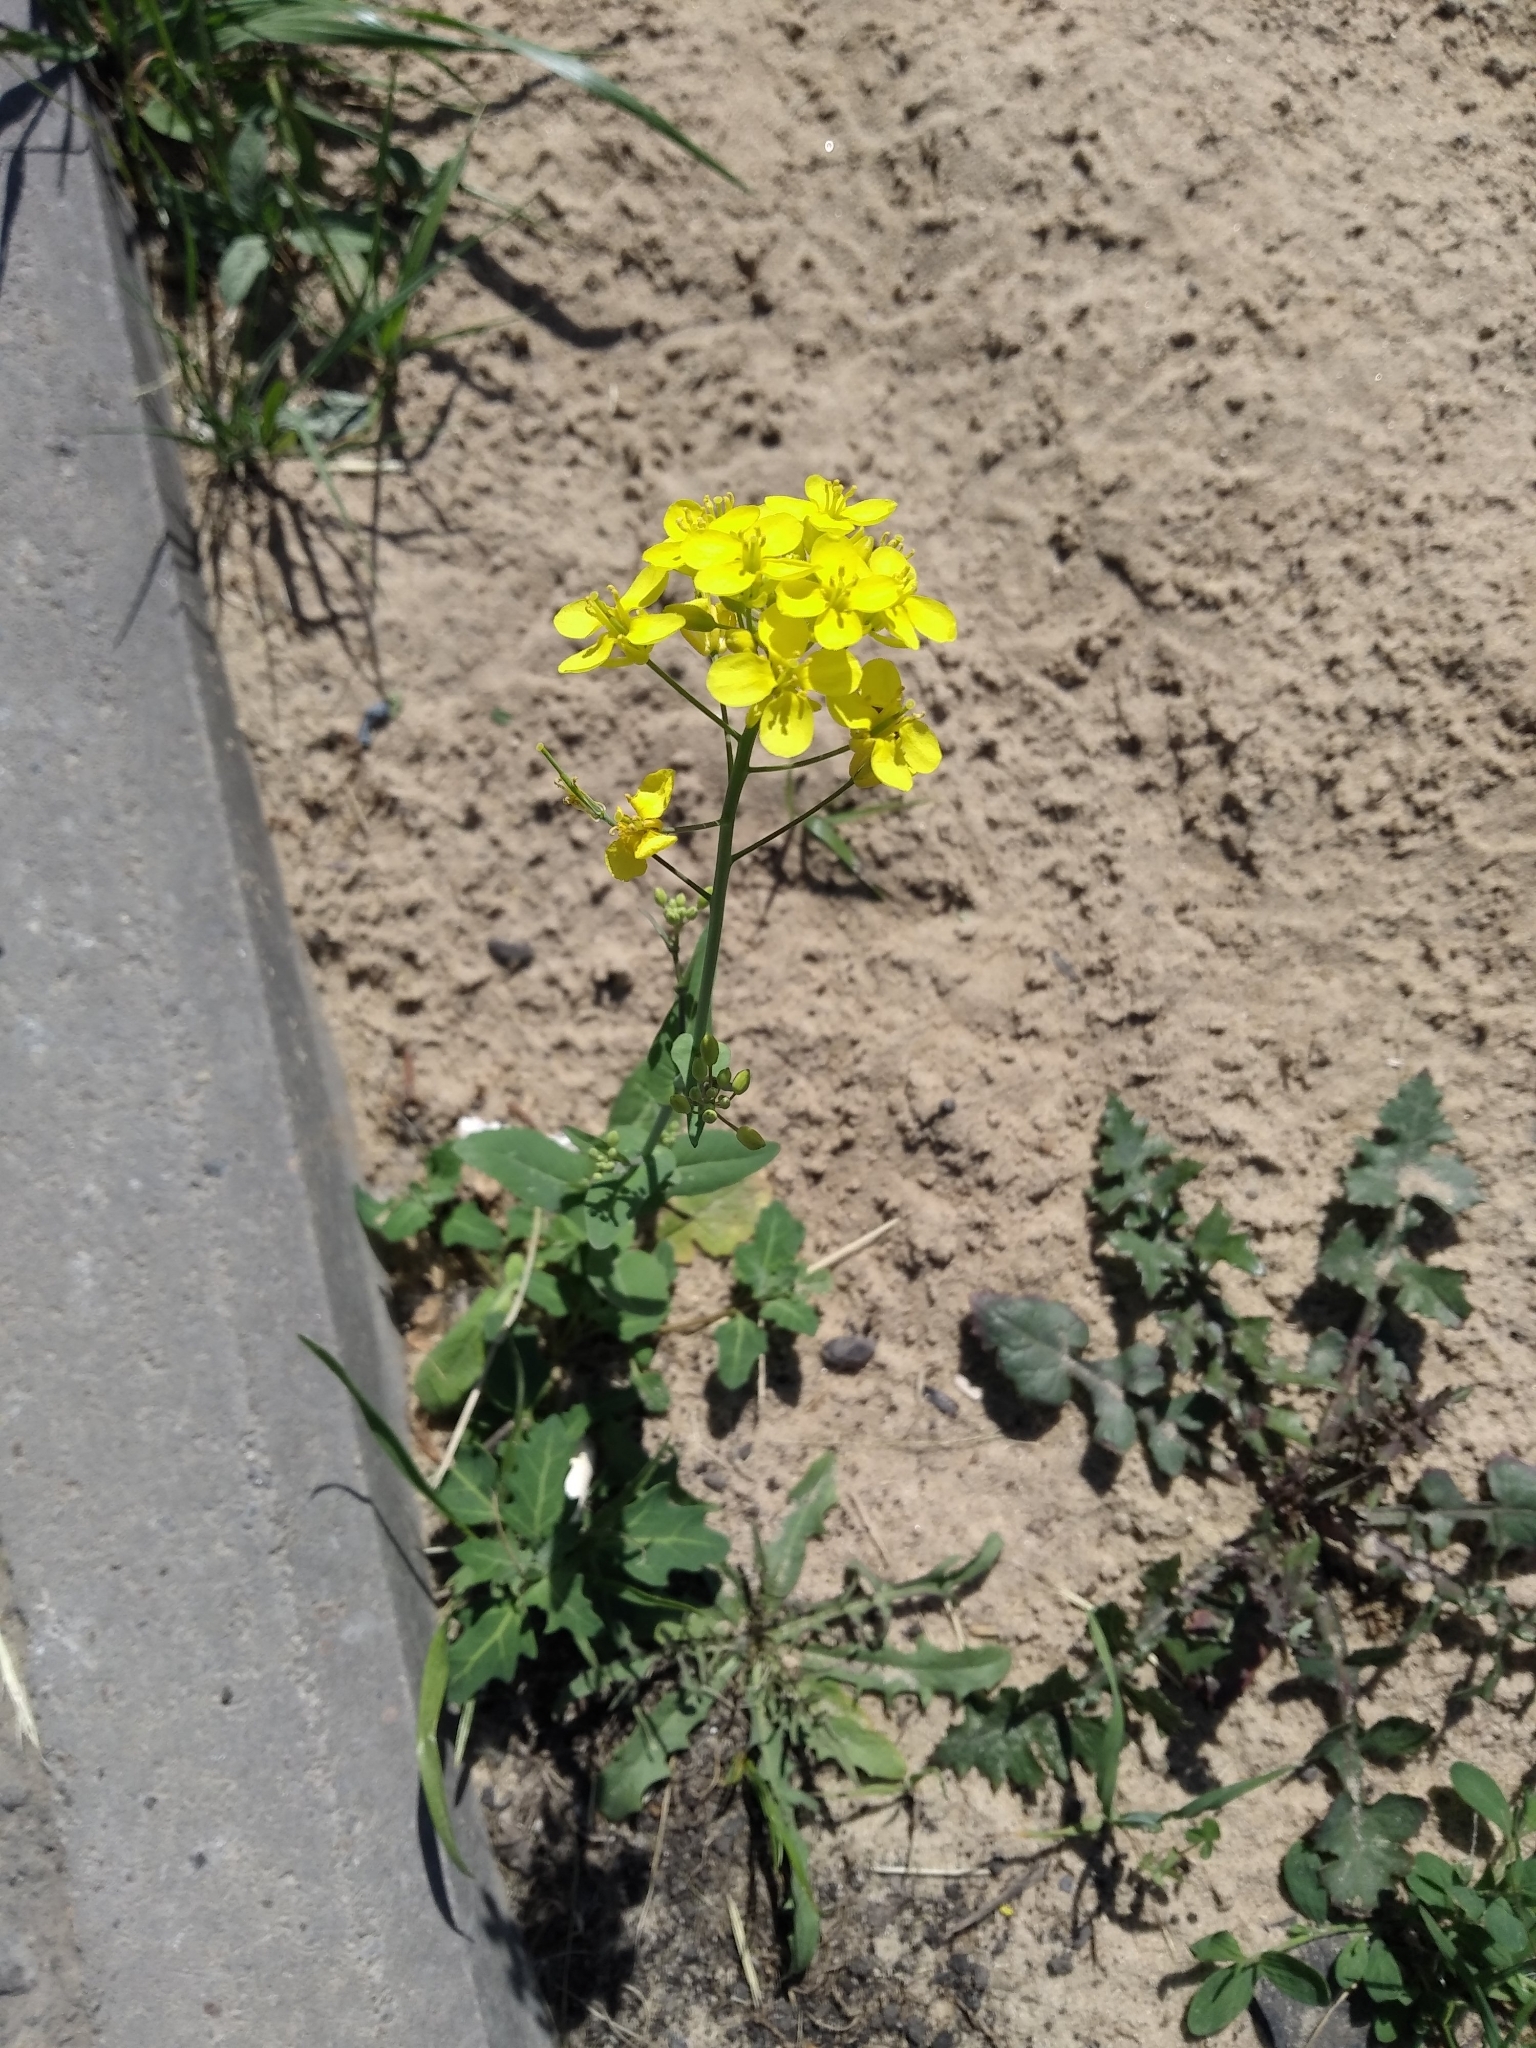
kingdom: Plantae
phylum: Tracheophyta
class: Magnoliopsida
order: Brassicales
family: Brassicaceae
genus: Brassica
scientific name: Brassica rapa
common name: Field mustard
